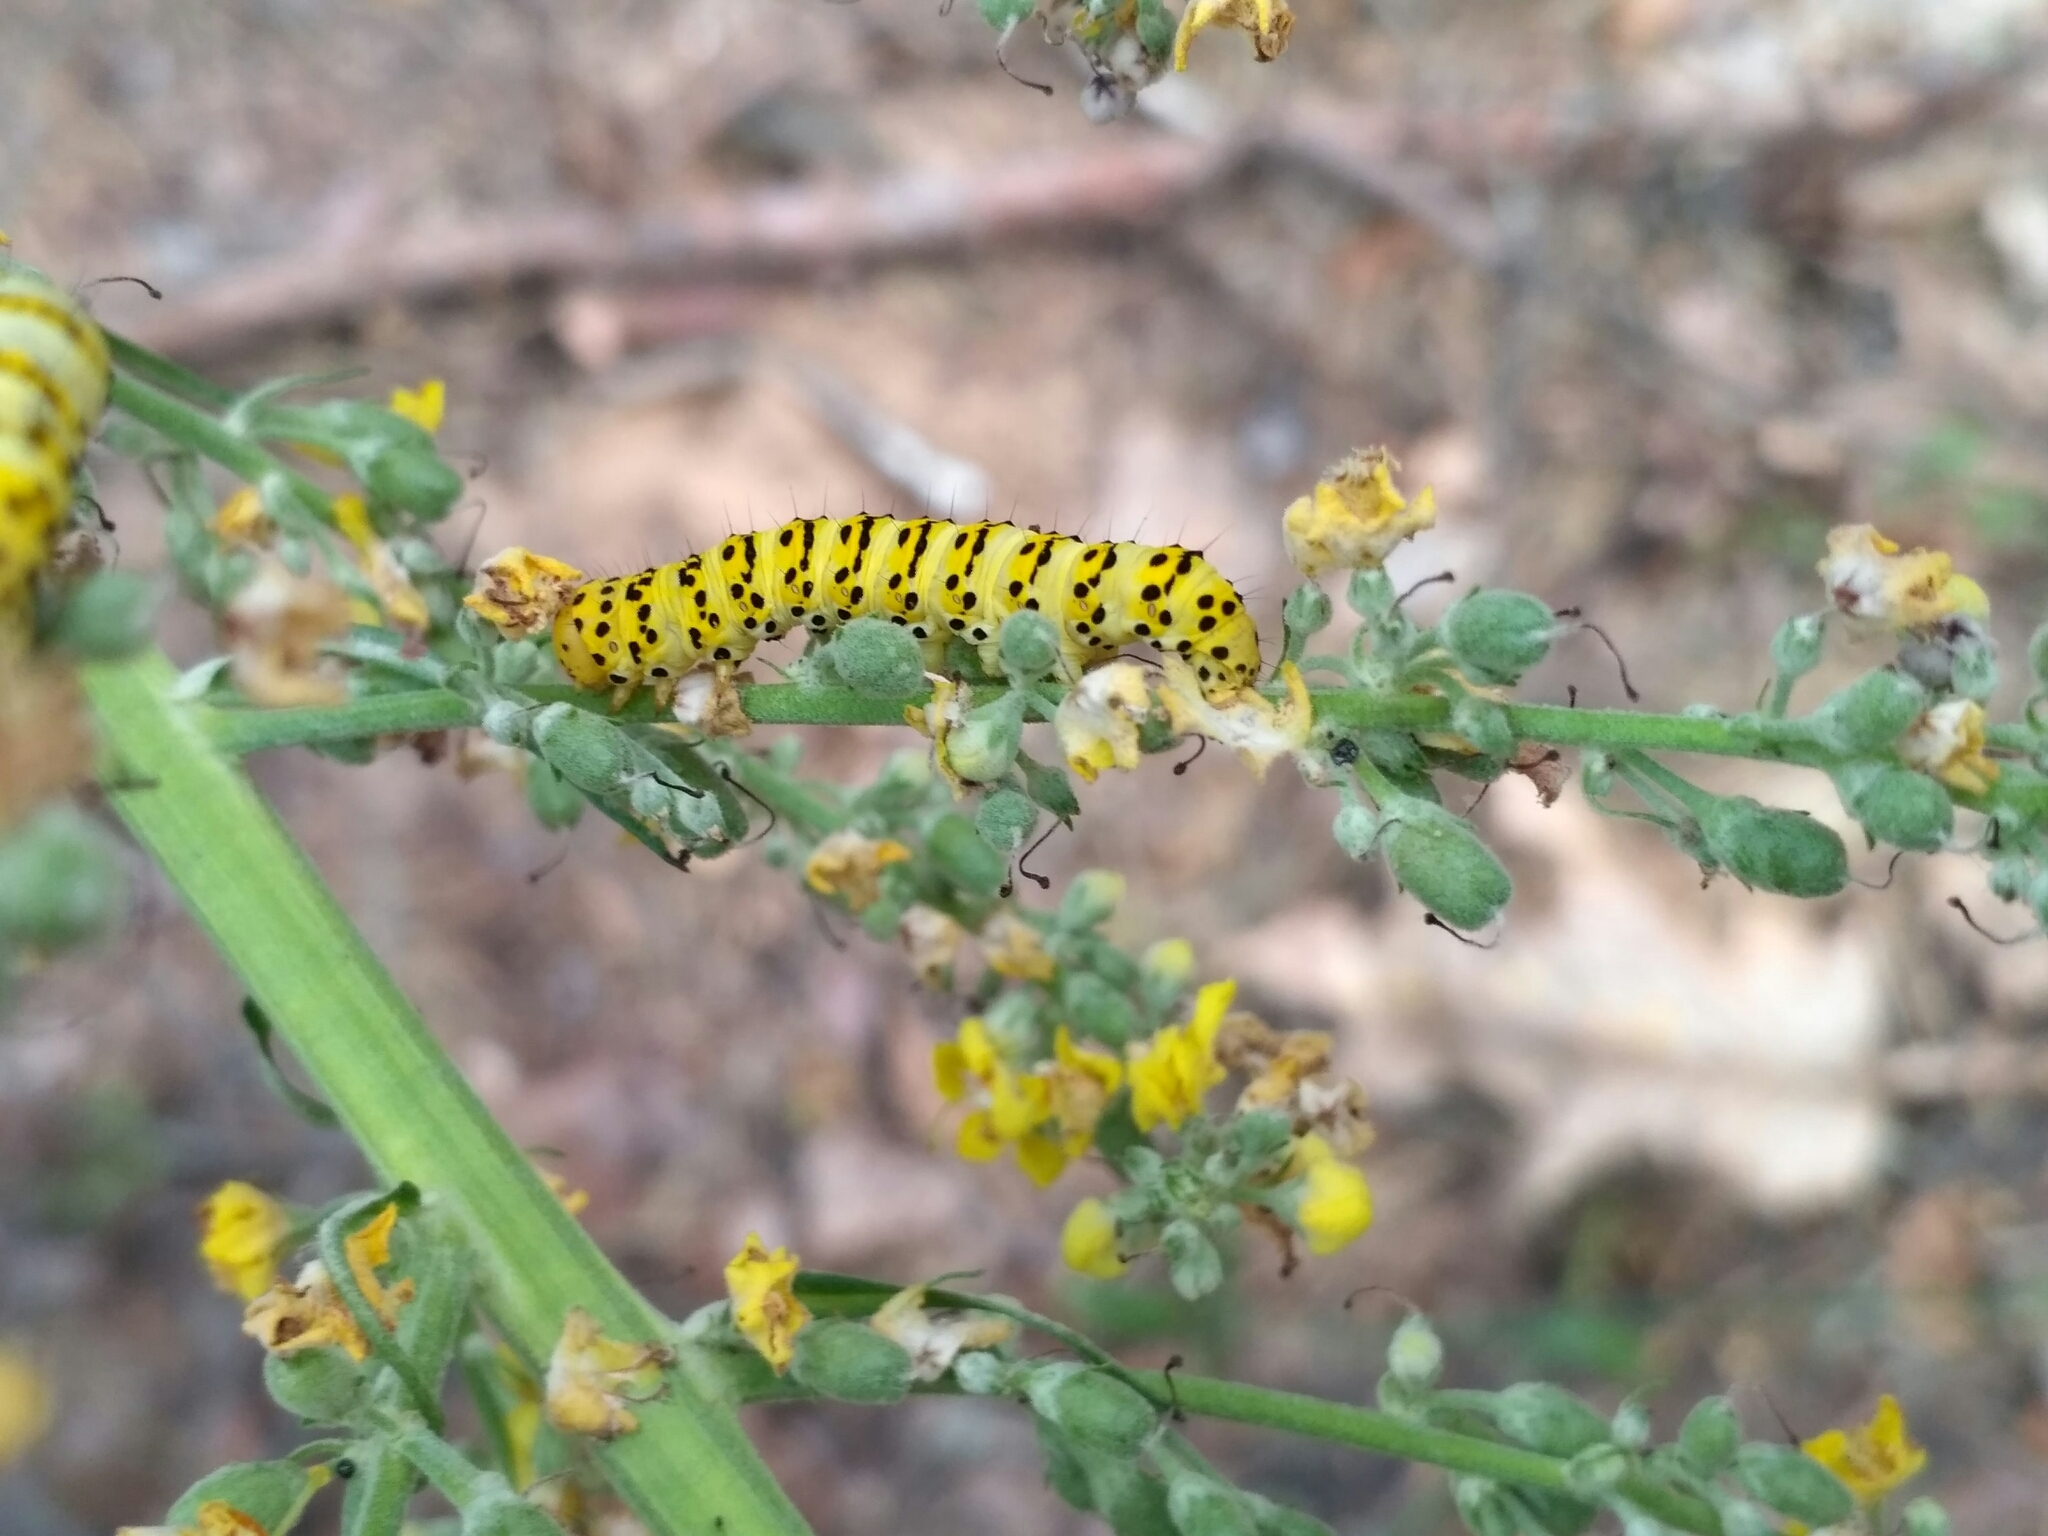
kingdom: Animalia
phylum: Arthropoda
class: Insecta
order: Lepidoptera
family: Noctuidae
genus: Cucullia
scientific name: Cucullia lychnitis
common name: Striped lychnis
